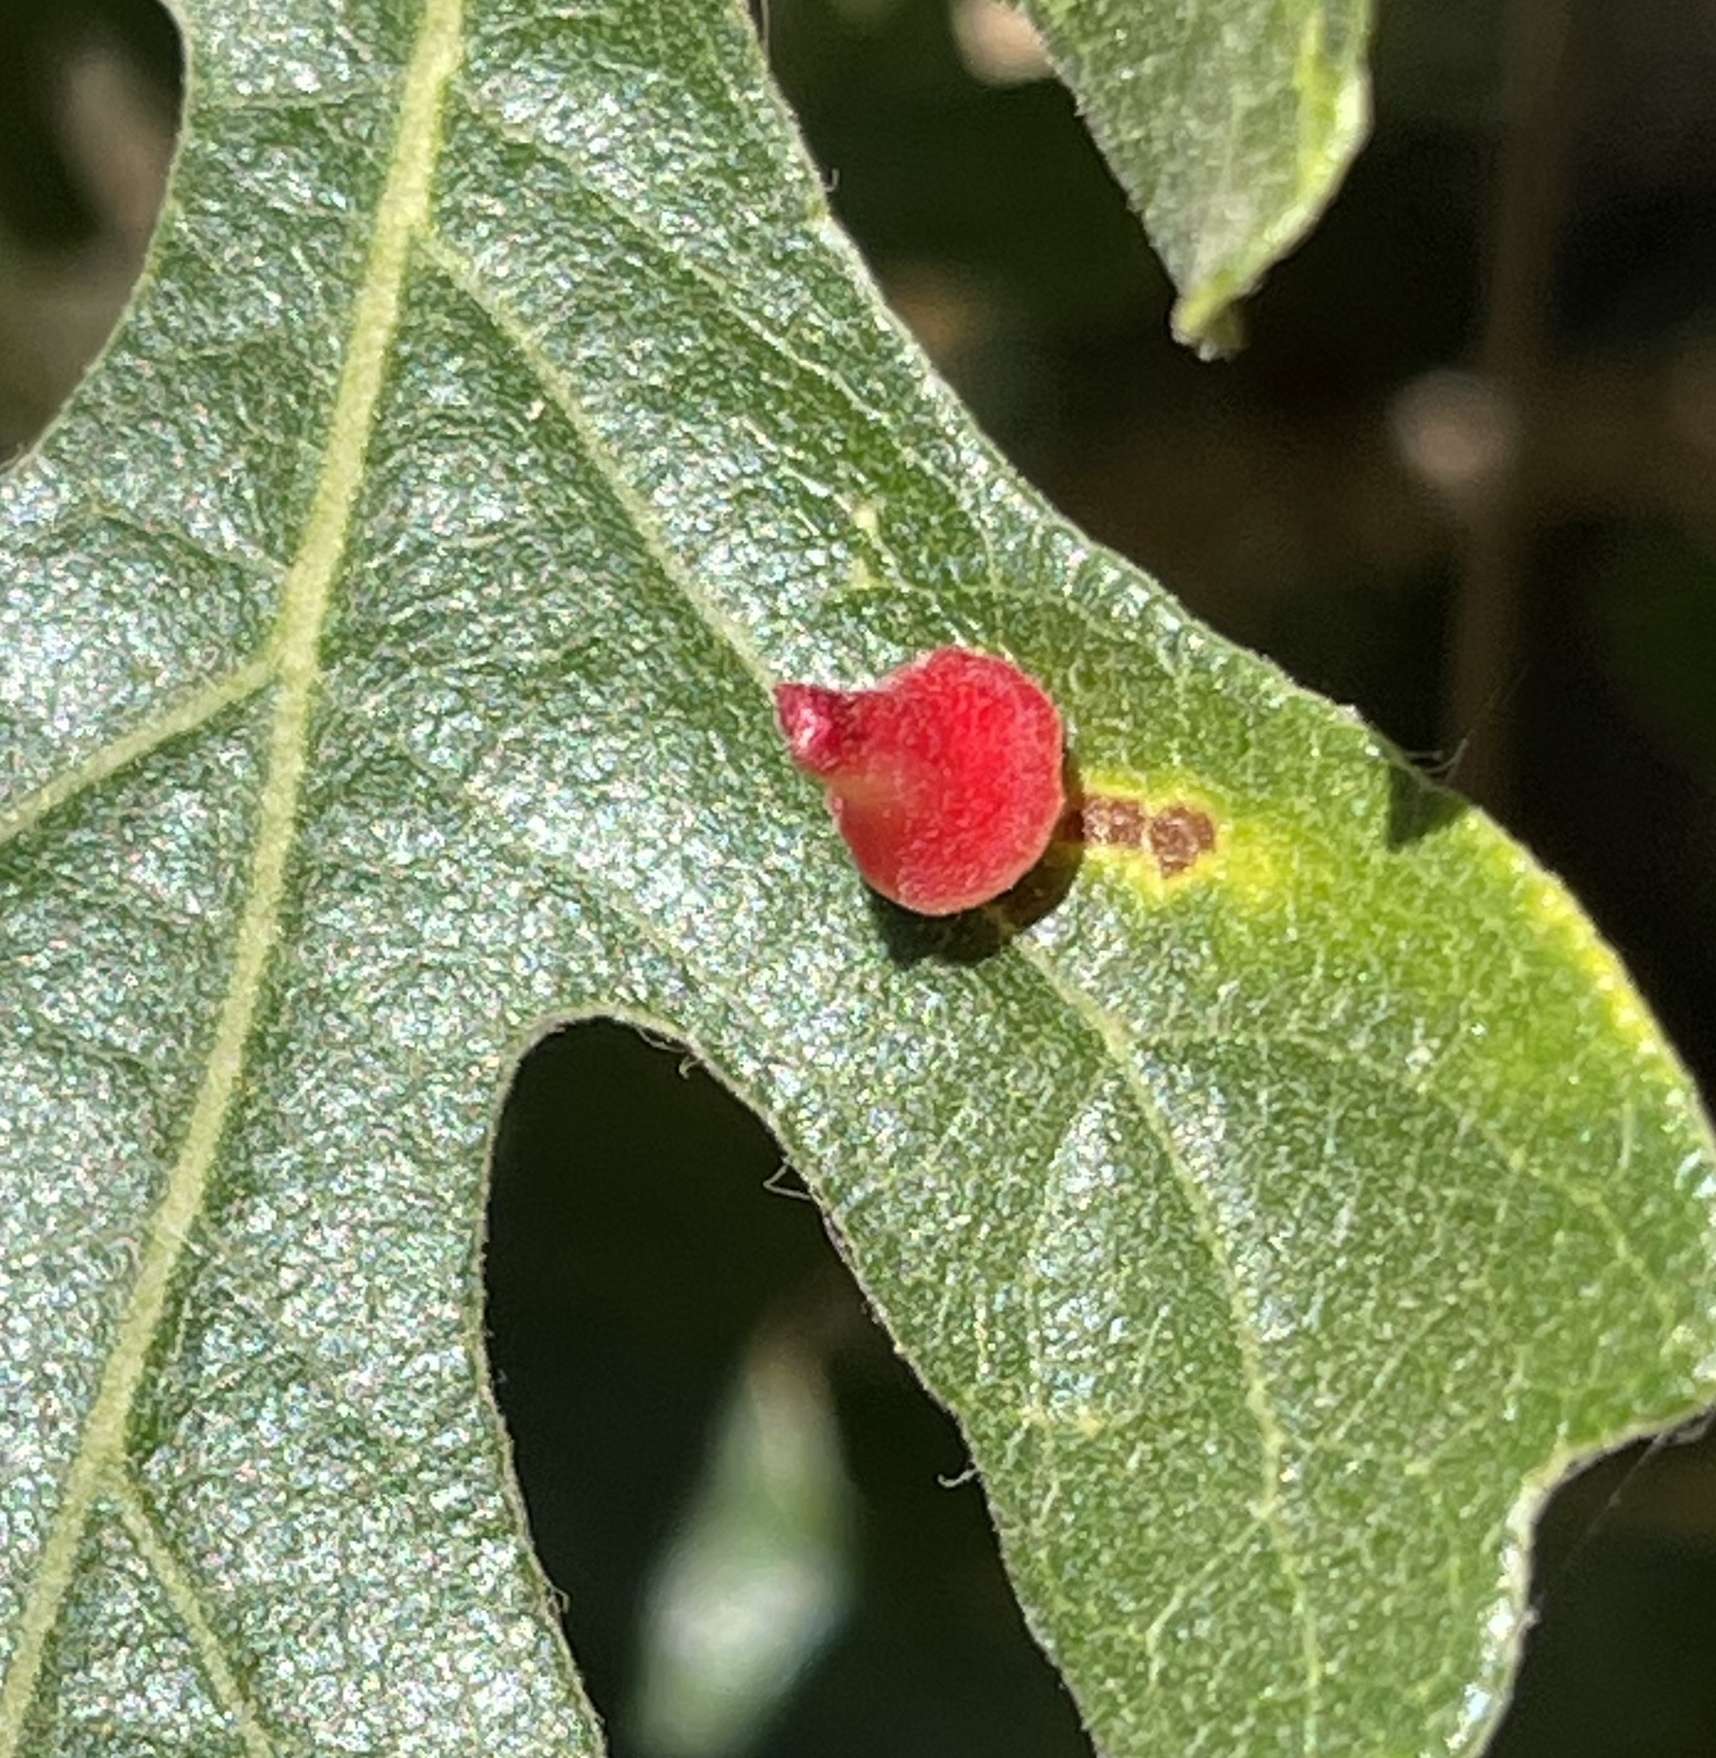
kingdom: Animalia
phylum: Arthropoda
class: Insecta
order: Hymenoptera
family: Cynipidae
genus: Andricus
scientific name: Andricus
